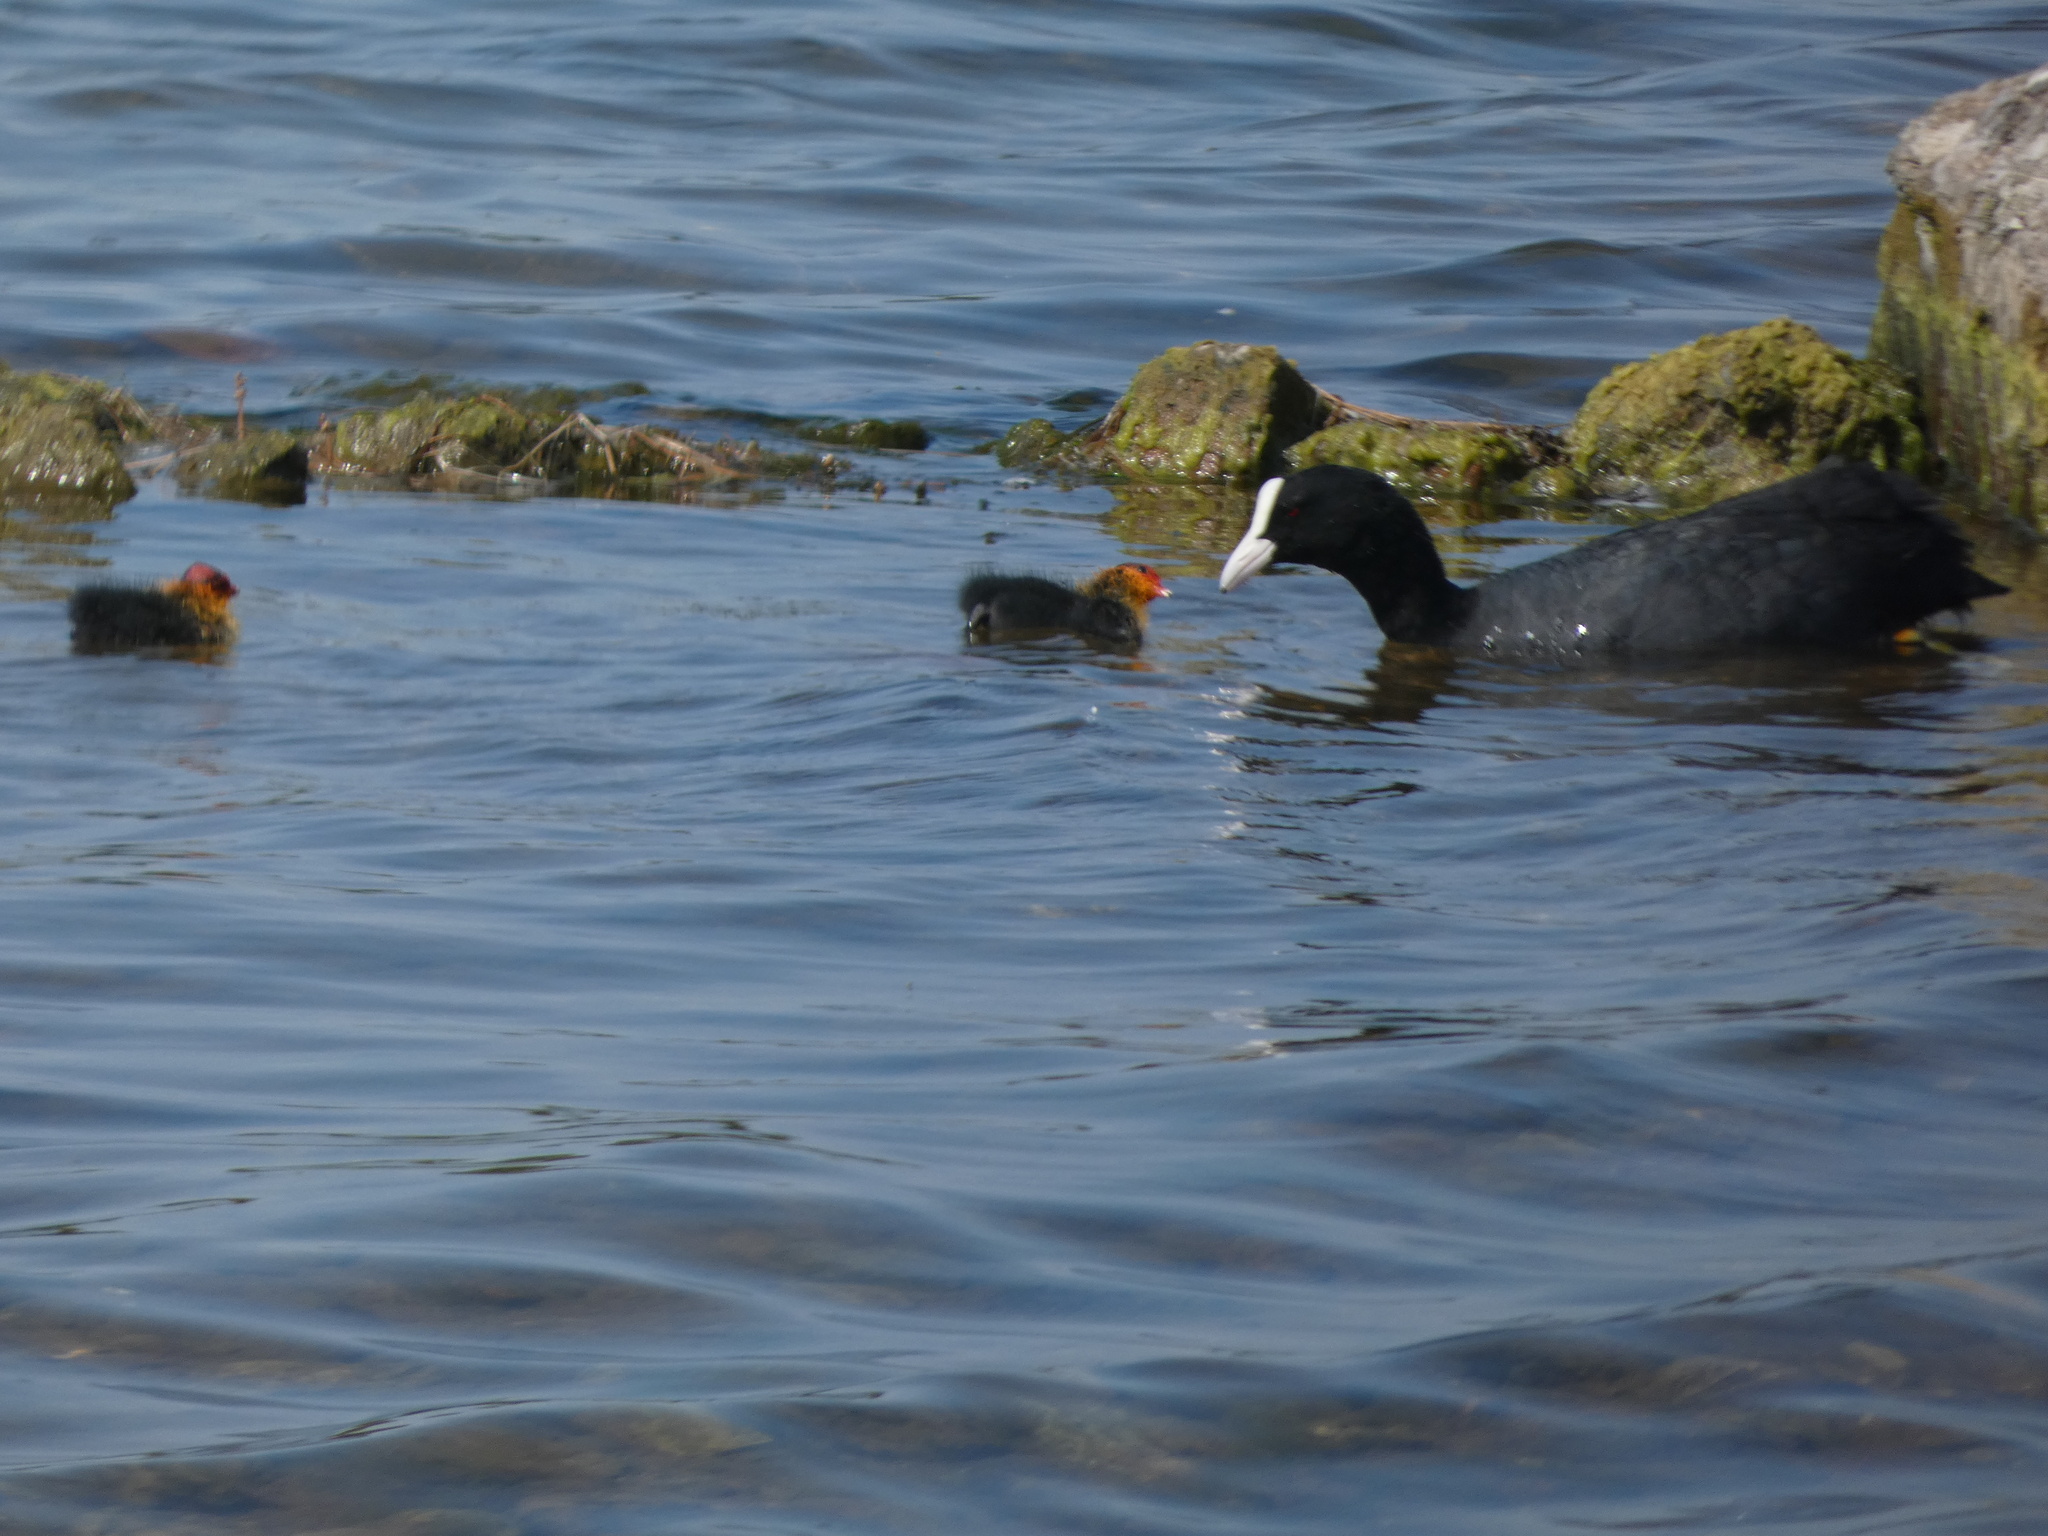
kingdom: Animalia
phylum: Chordata
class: Aves
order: Gruiformes
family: Rallidae
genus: Fulica
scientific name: Fulica atra
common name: Eurasian coot
